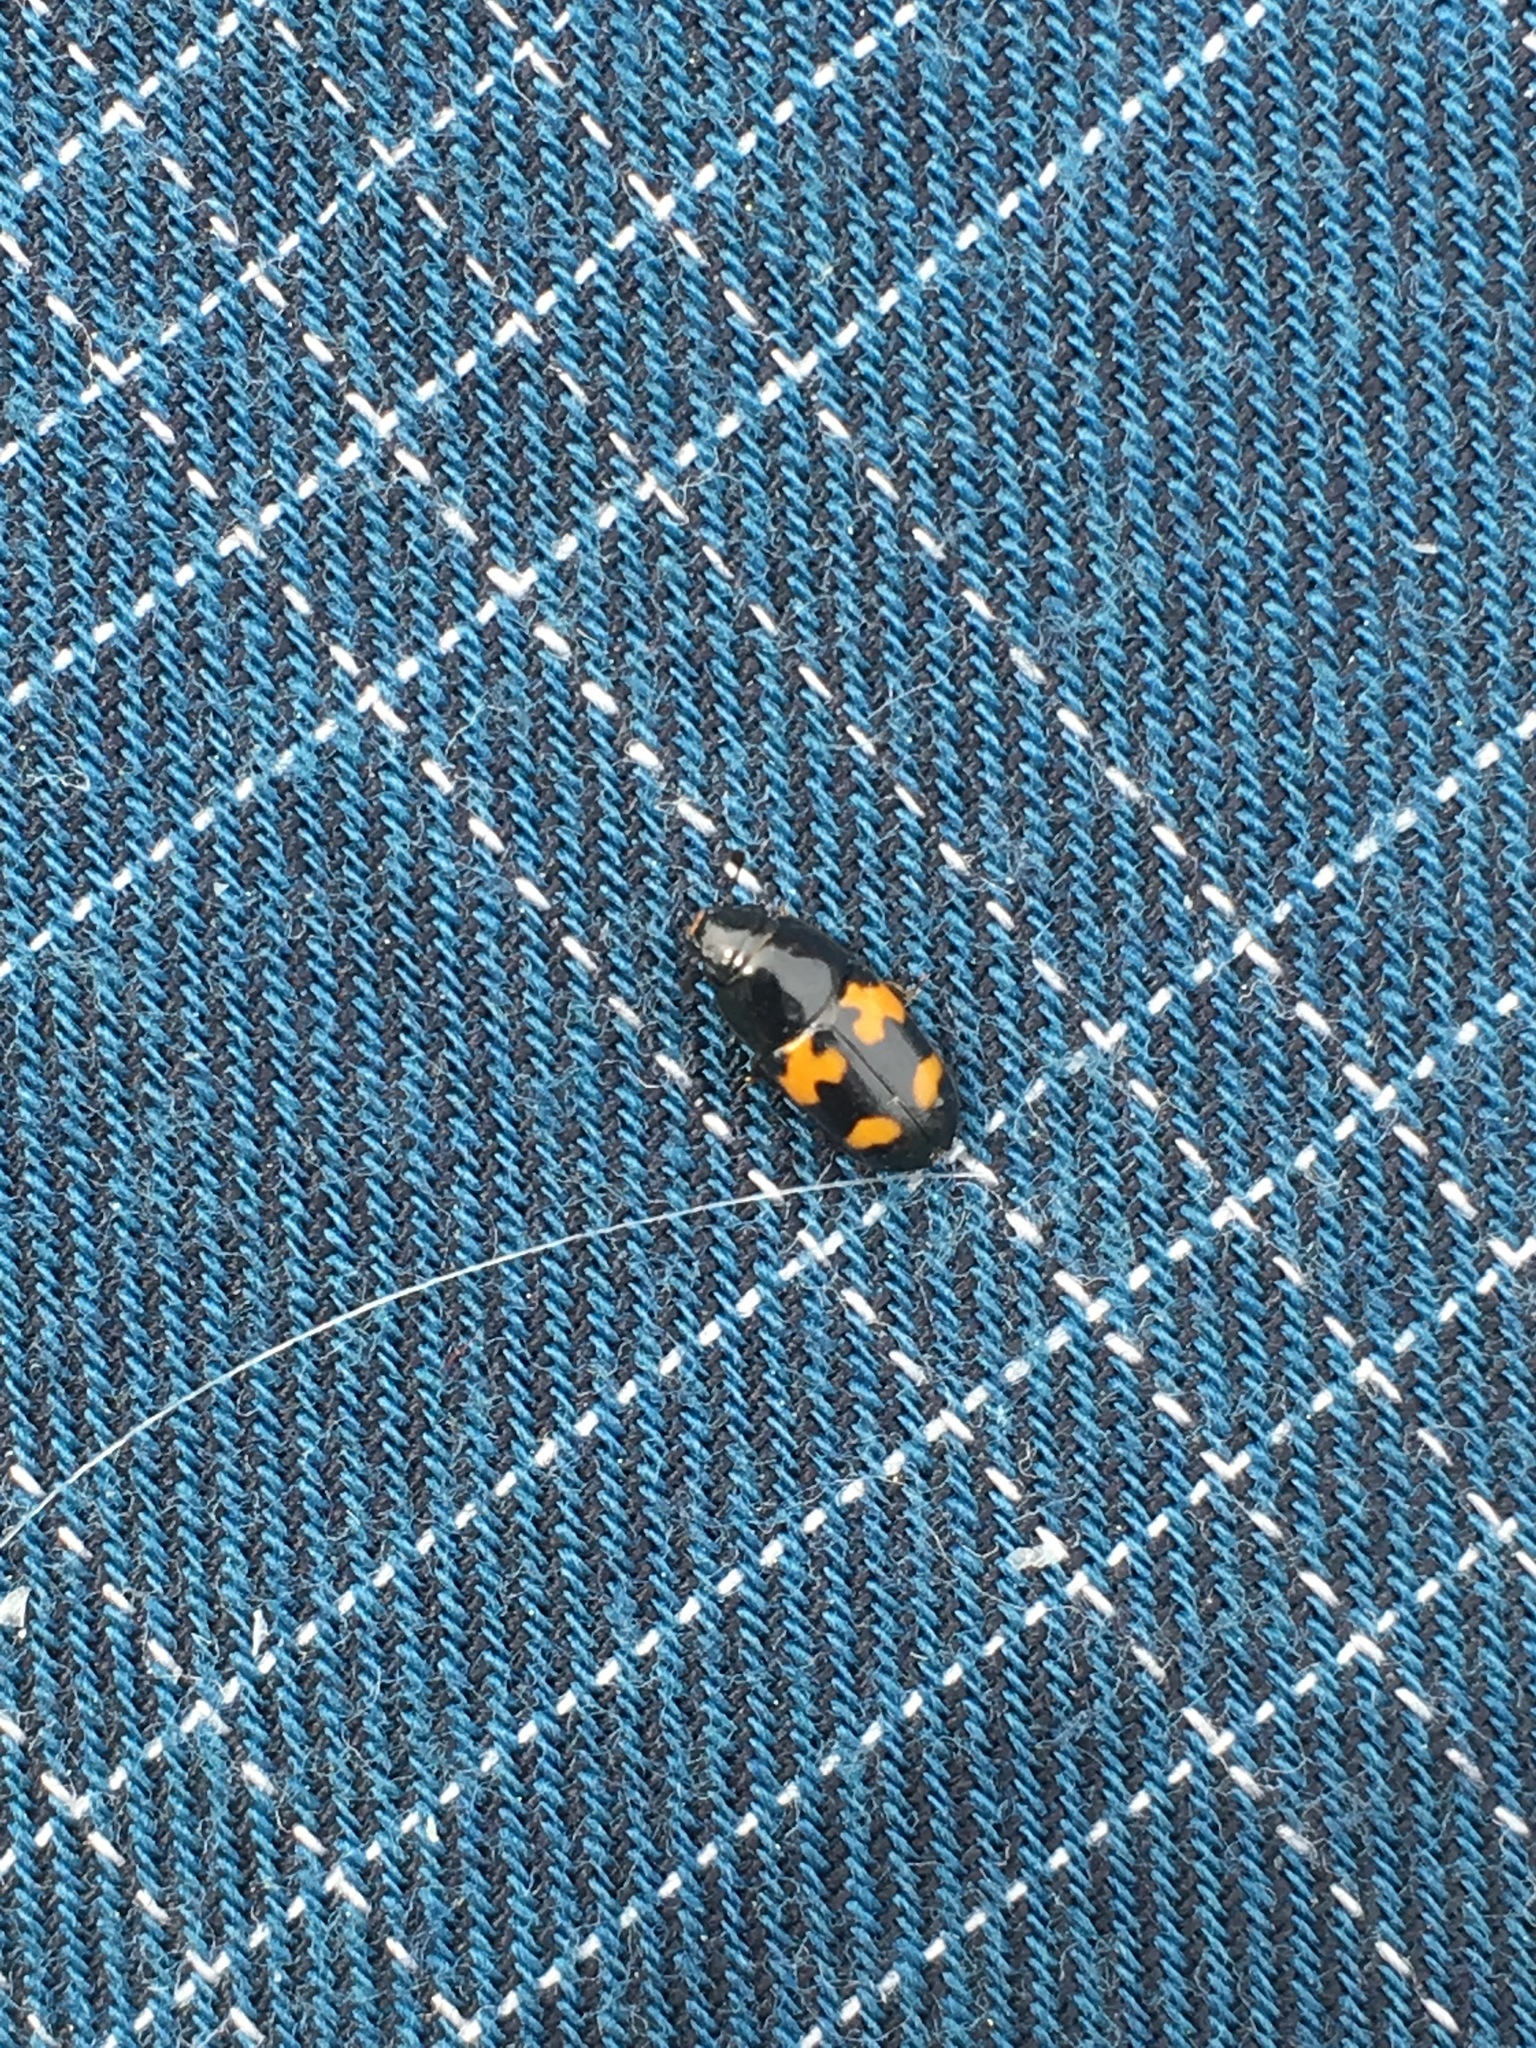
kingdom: Animalia
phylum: Arthropoda
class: Insecta
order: Coleoptera
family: Nitidulidae
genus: Glischrochilus
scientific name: Glischrochilus fasciatus
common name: Picnic beetle
